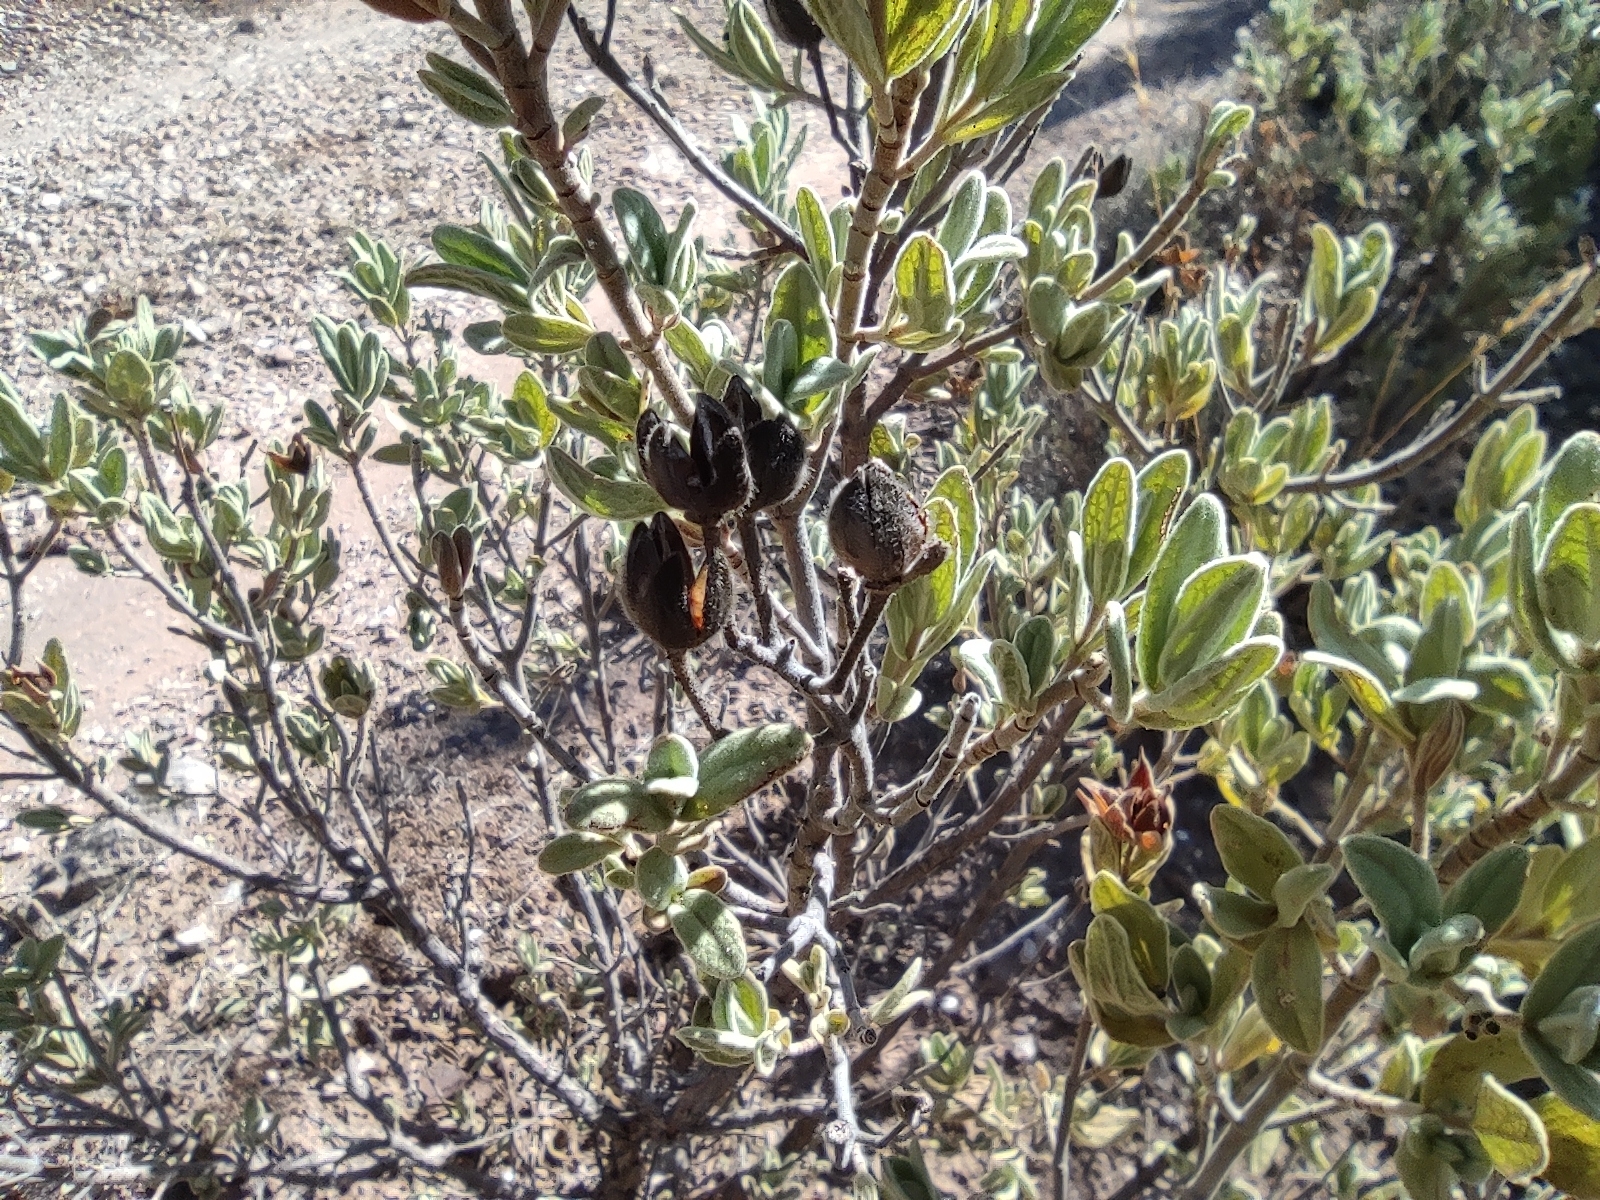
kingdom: Plantae
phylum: Tracheophyta
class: Magnoliopsida
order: Malvales
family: Cistaceae
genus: Cistus
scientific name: Cistus albidus
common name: White-leaf rock-rose
